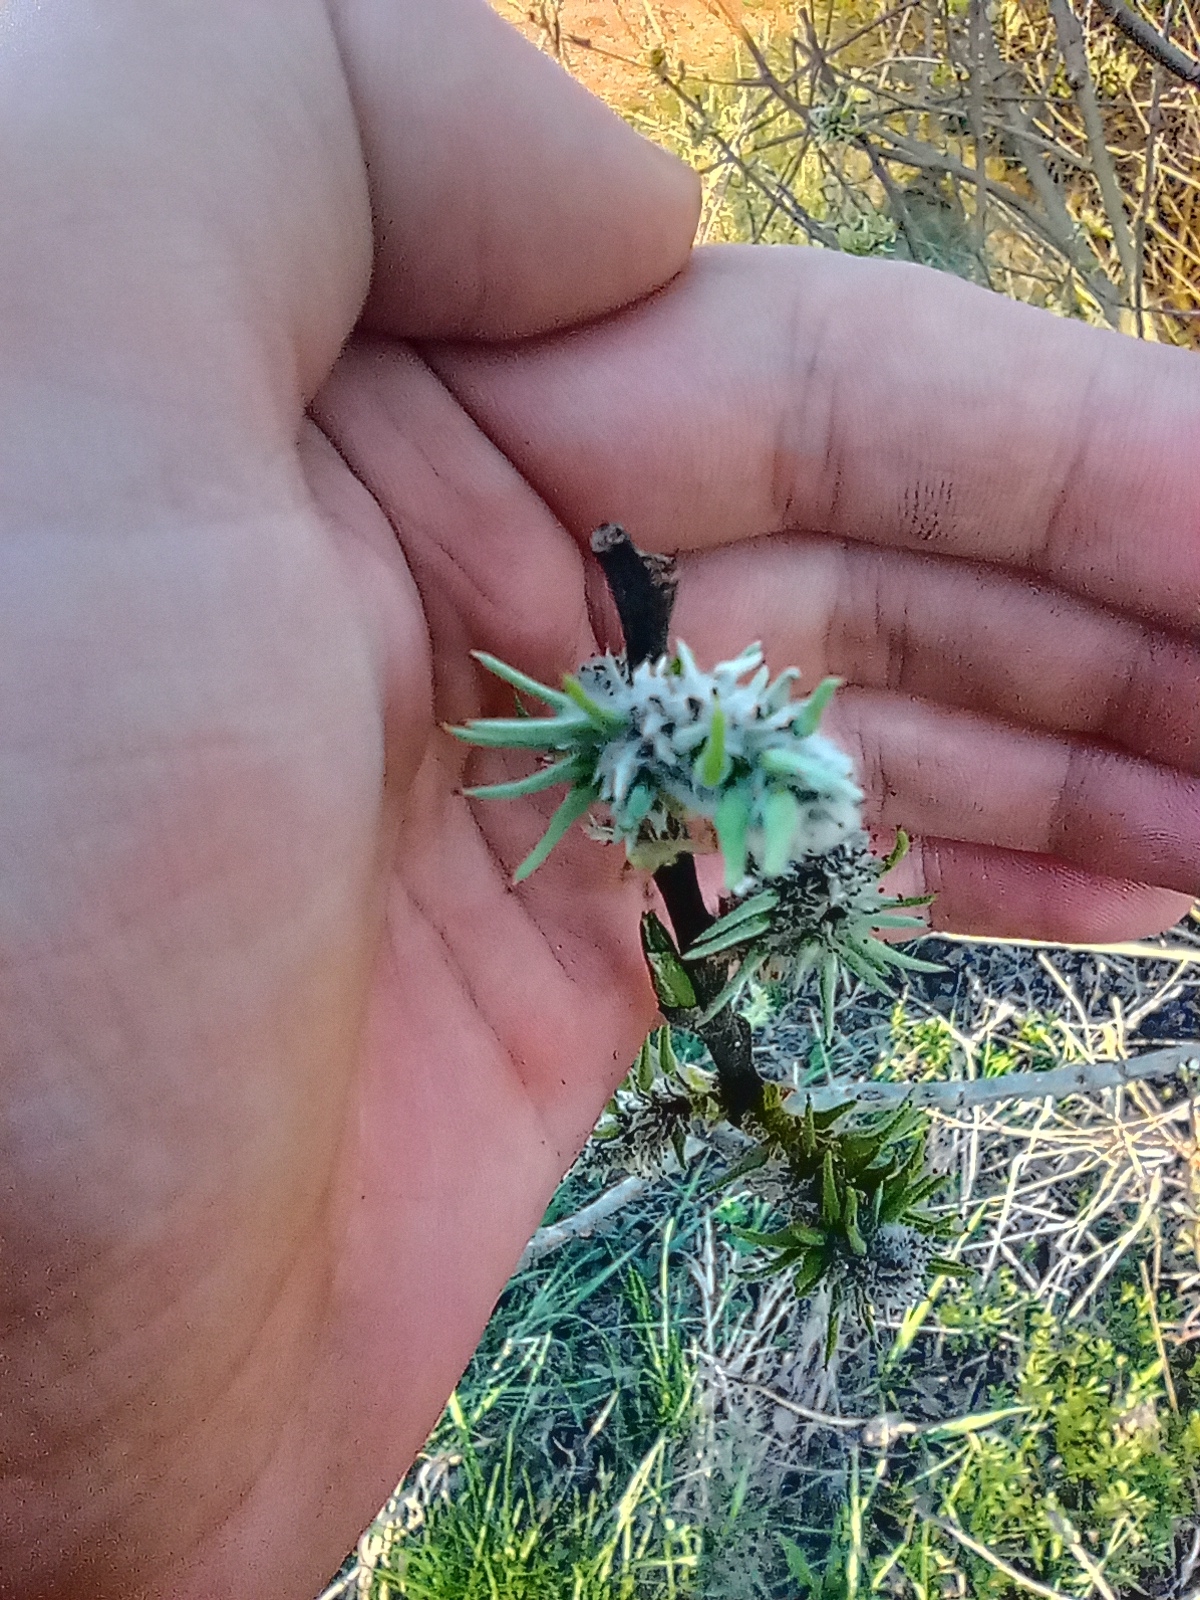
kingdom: Plantae
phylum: Tracheophyta
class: Magnoliopsida
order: Malpighiales
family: Salicaceae
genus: Salix
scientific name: Salix rosmarinifolia
